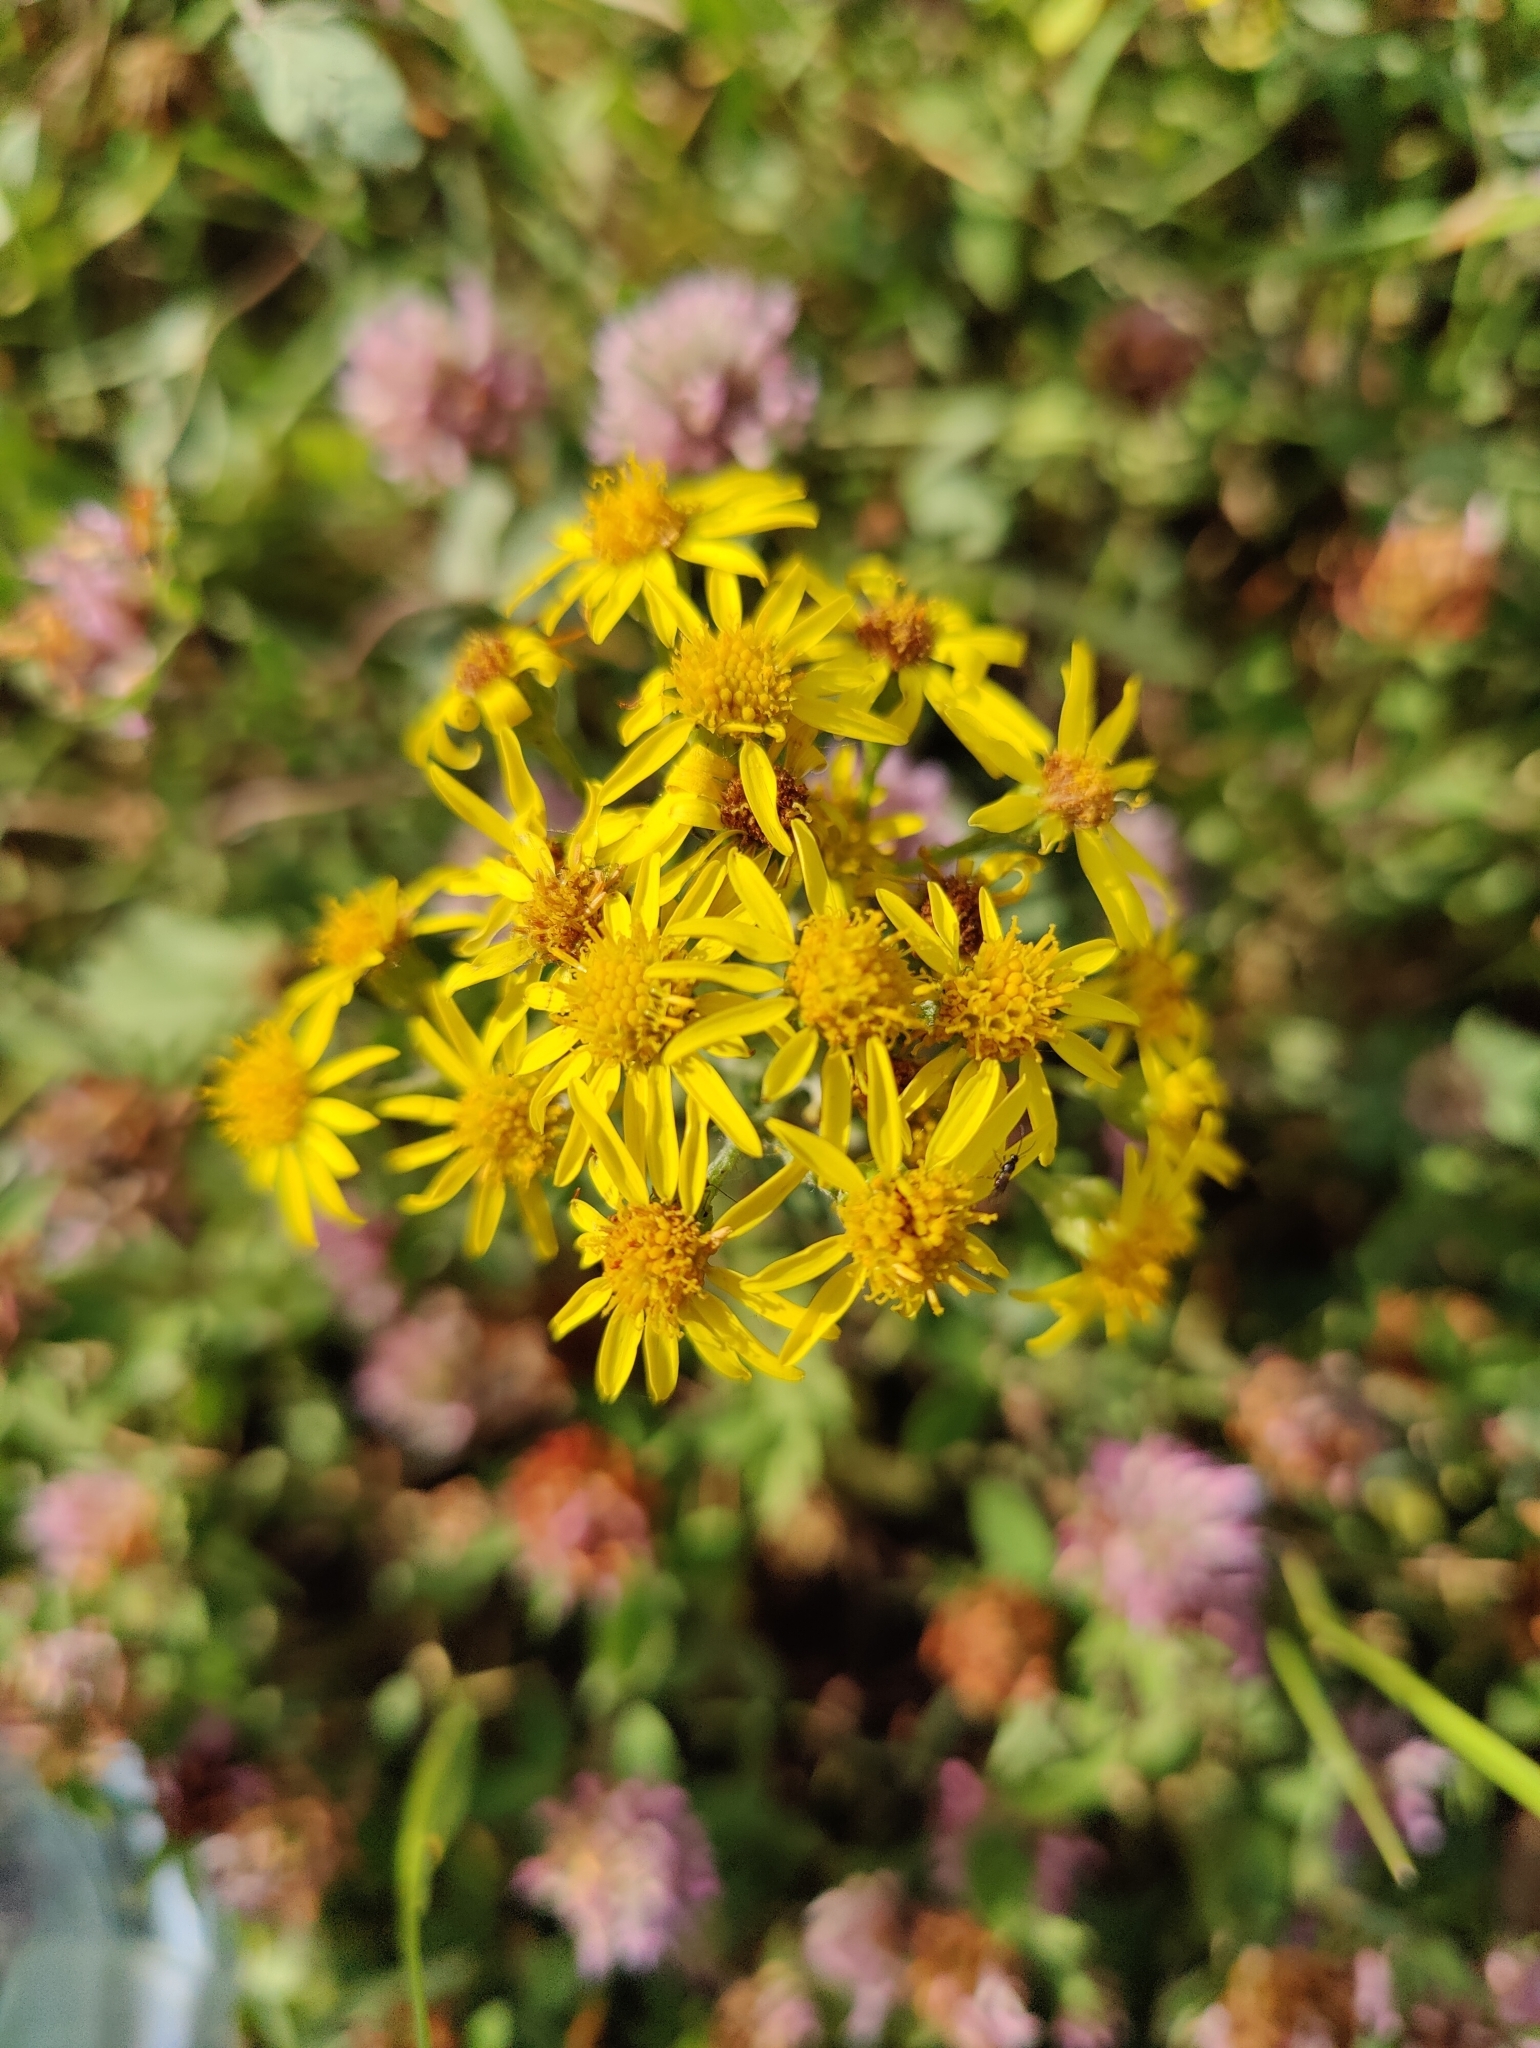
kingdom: Plantae
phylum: Tracheophyta
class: Magnoliopsida
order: Asterales
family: Asteraceae
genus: Jacobaea
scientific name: Jacobaea vulgaris
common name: Stinking willie
